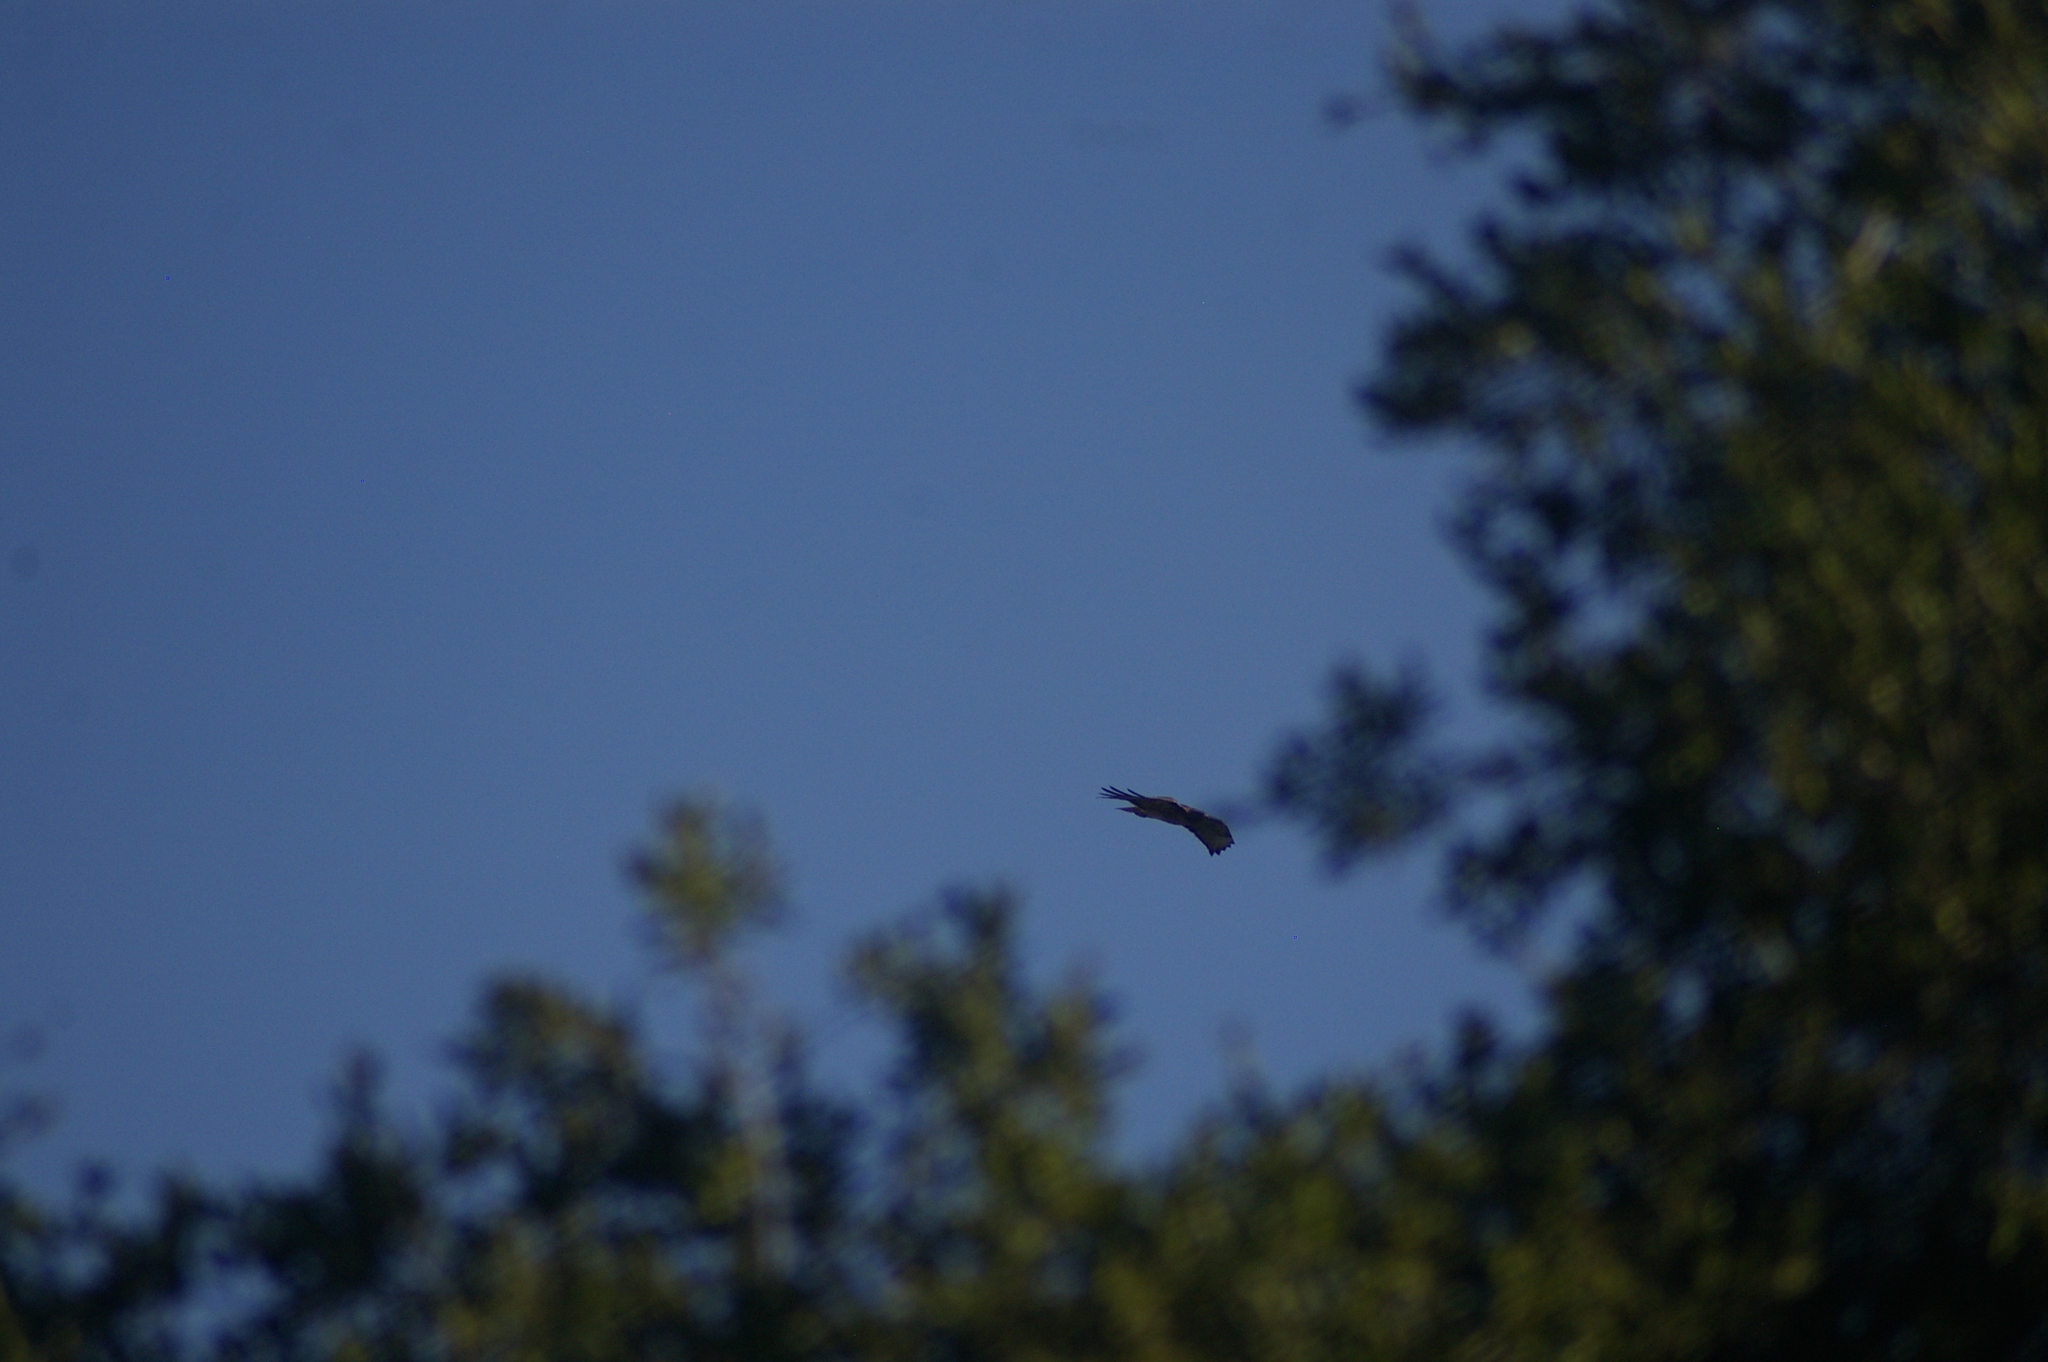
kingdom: Animalia
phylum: Chordata
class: Aves
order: Accipitriformes
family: Accipitridae
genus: Buteo
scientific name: Buteo jamaicensis
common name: Red-tailed hawk
